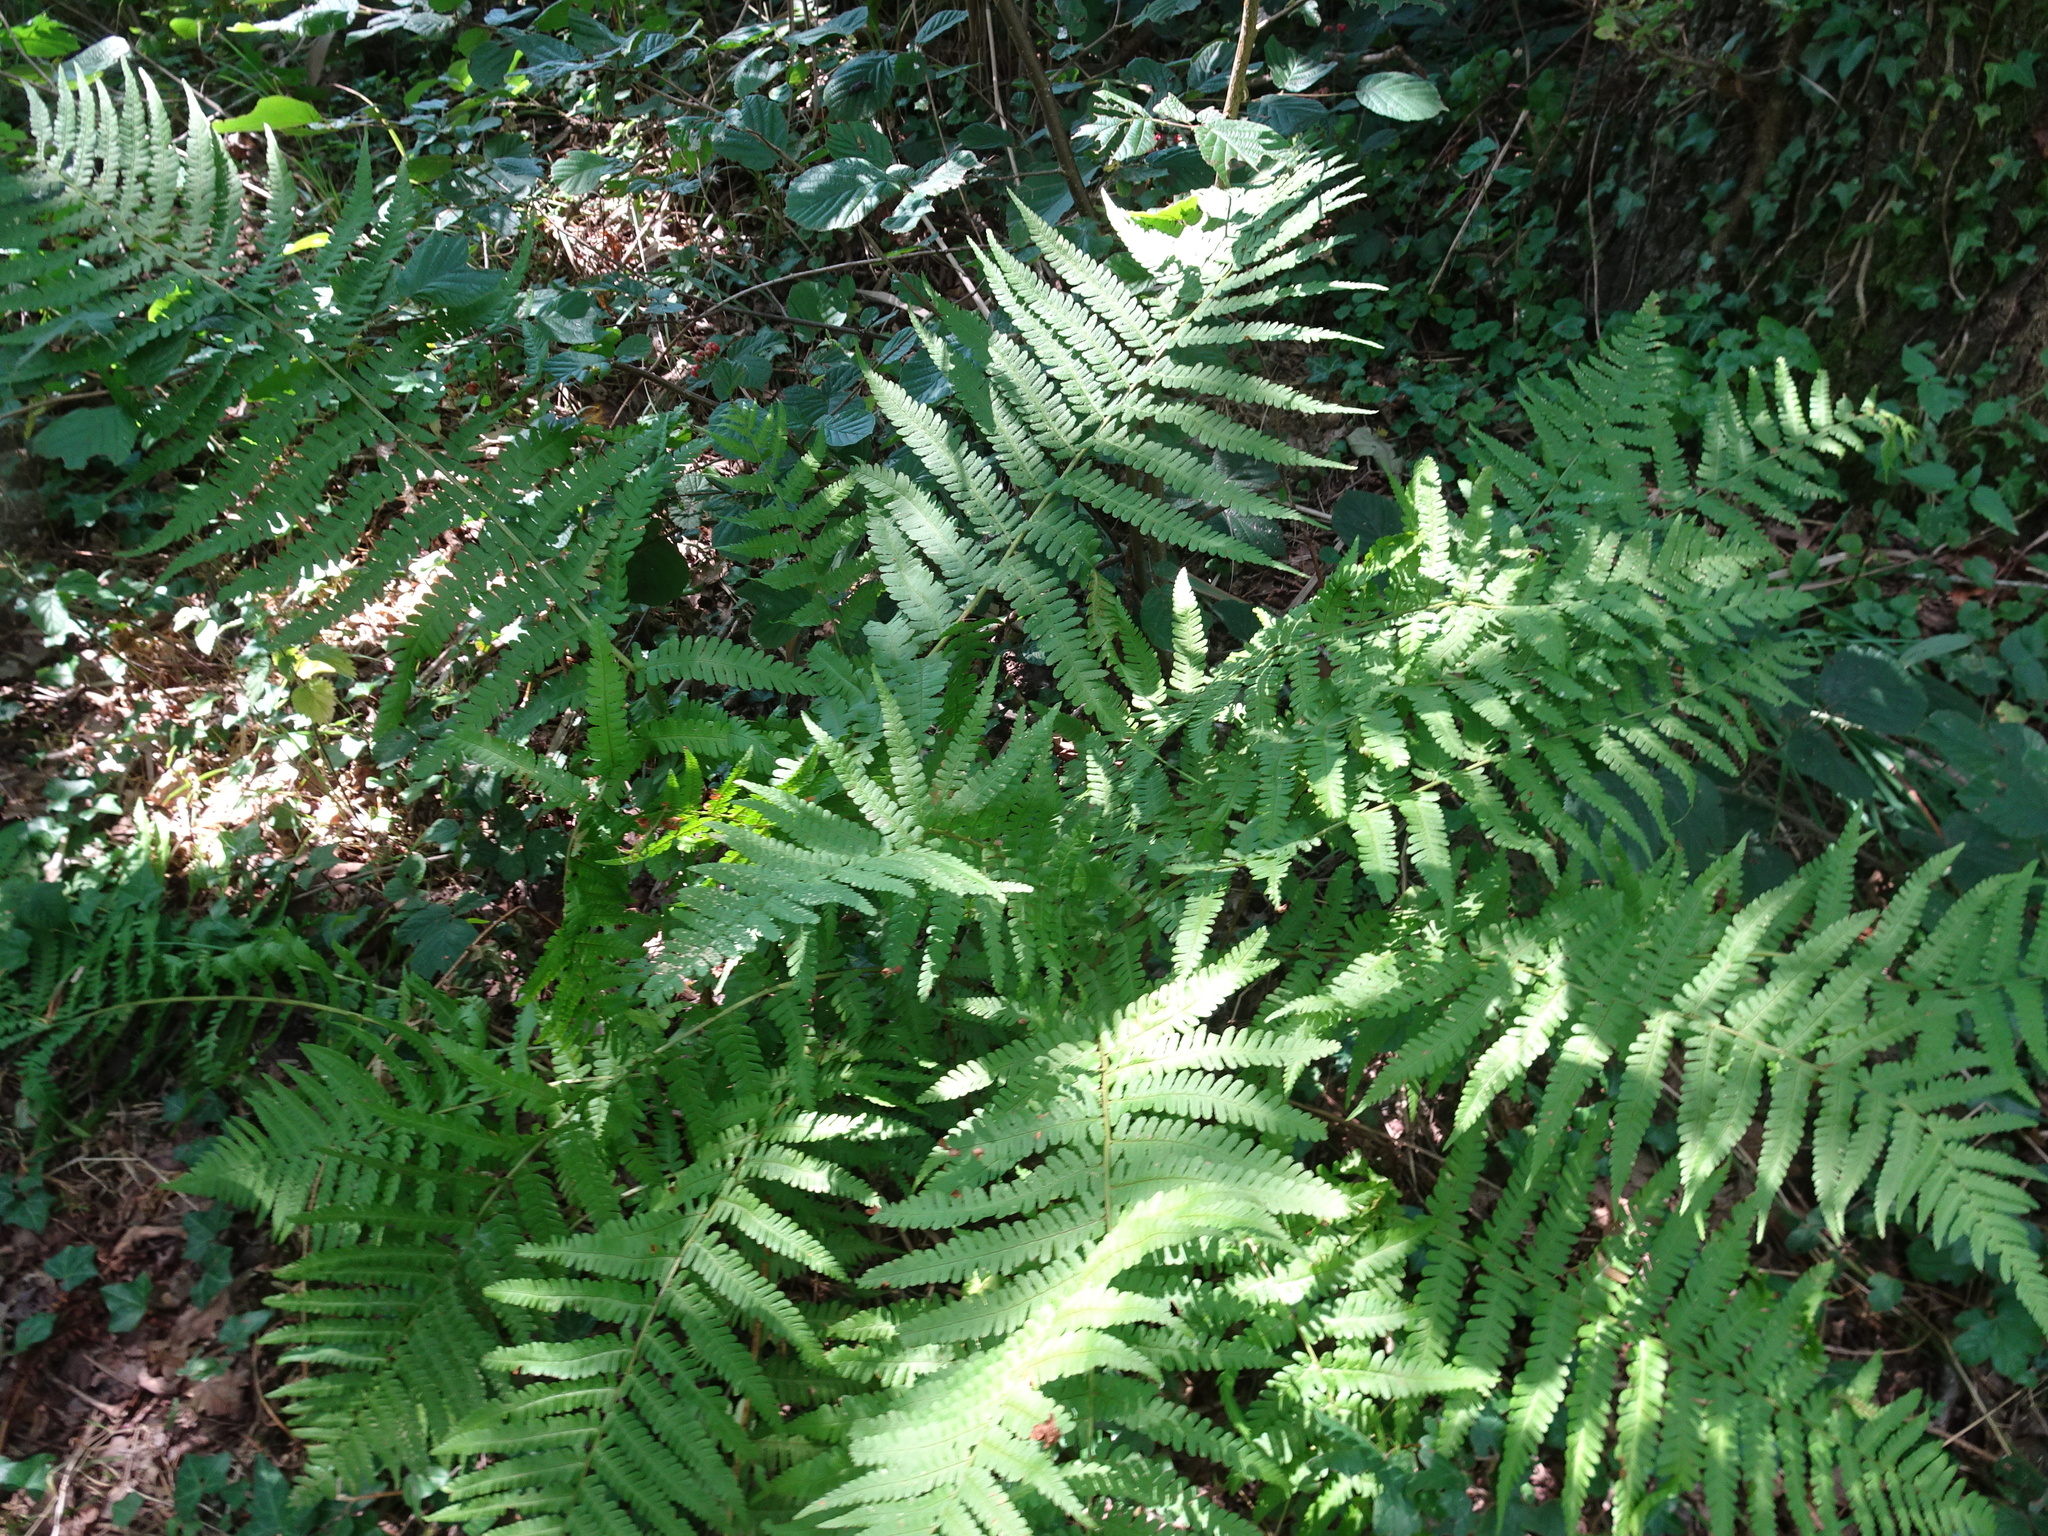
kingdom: Plantae
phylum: Tracheophyta
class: Polypodiopsida
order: Polypodiales
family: Dryopteridaceae
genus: Dryopteris
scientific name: Dryopteris filix-mas
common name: Male fern
